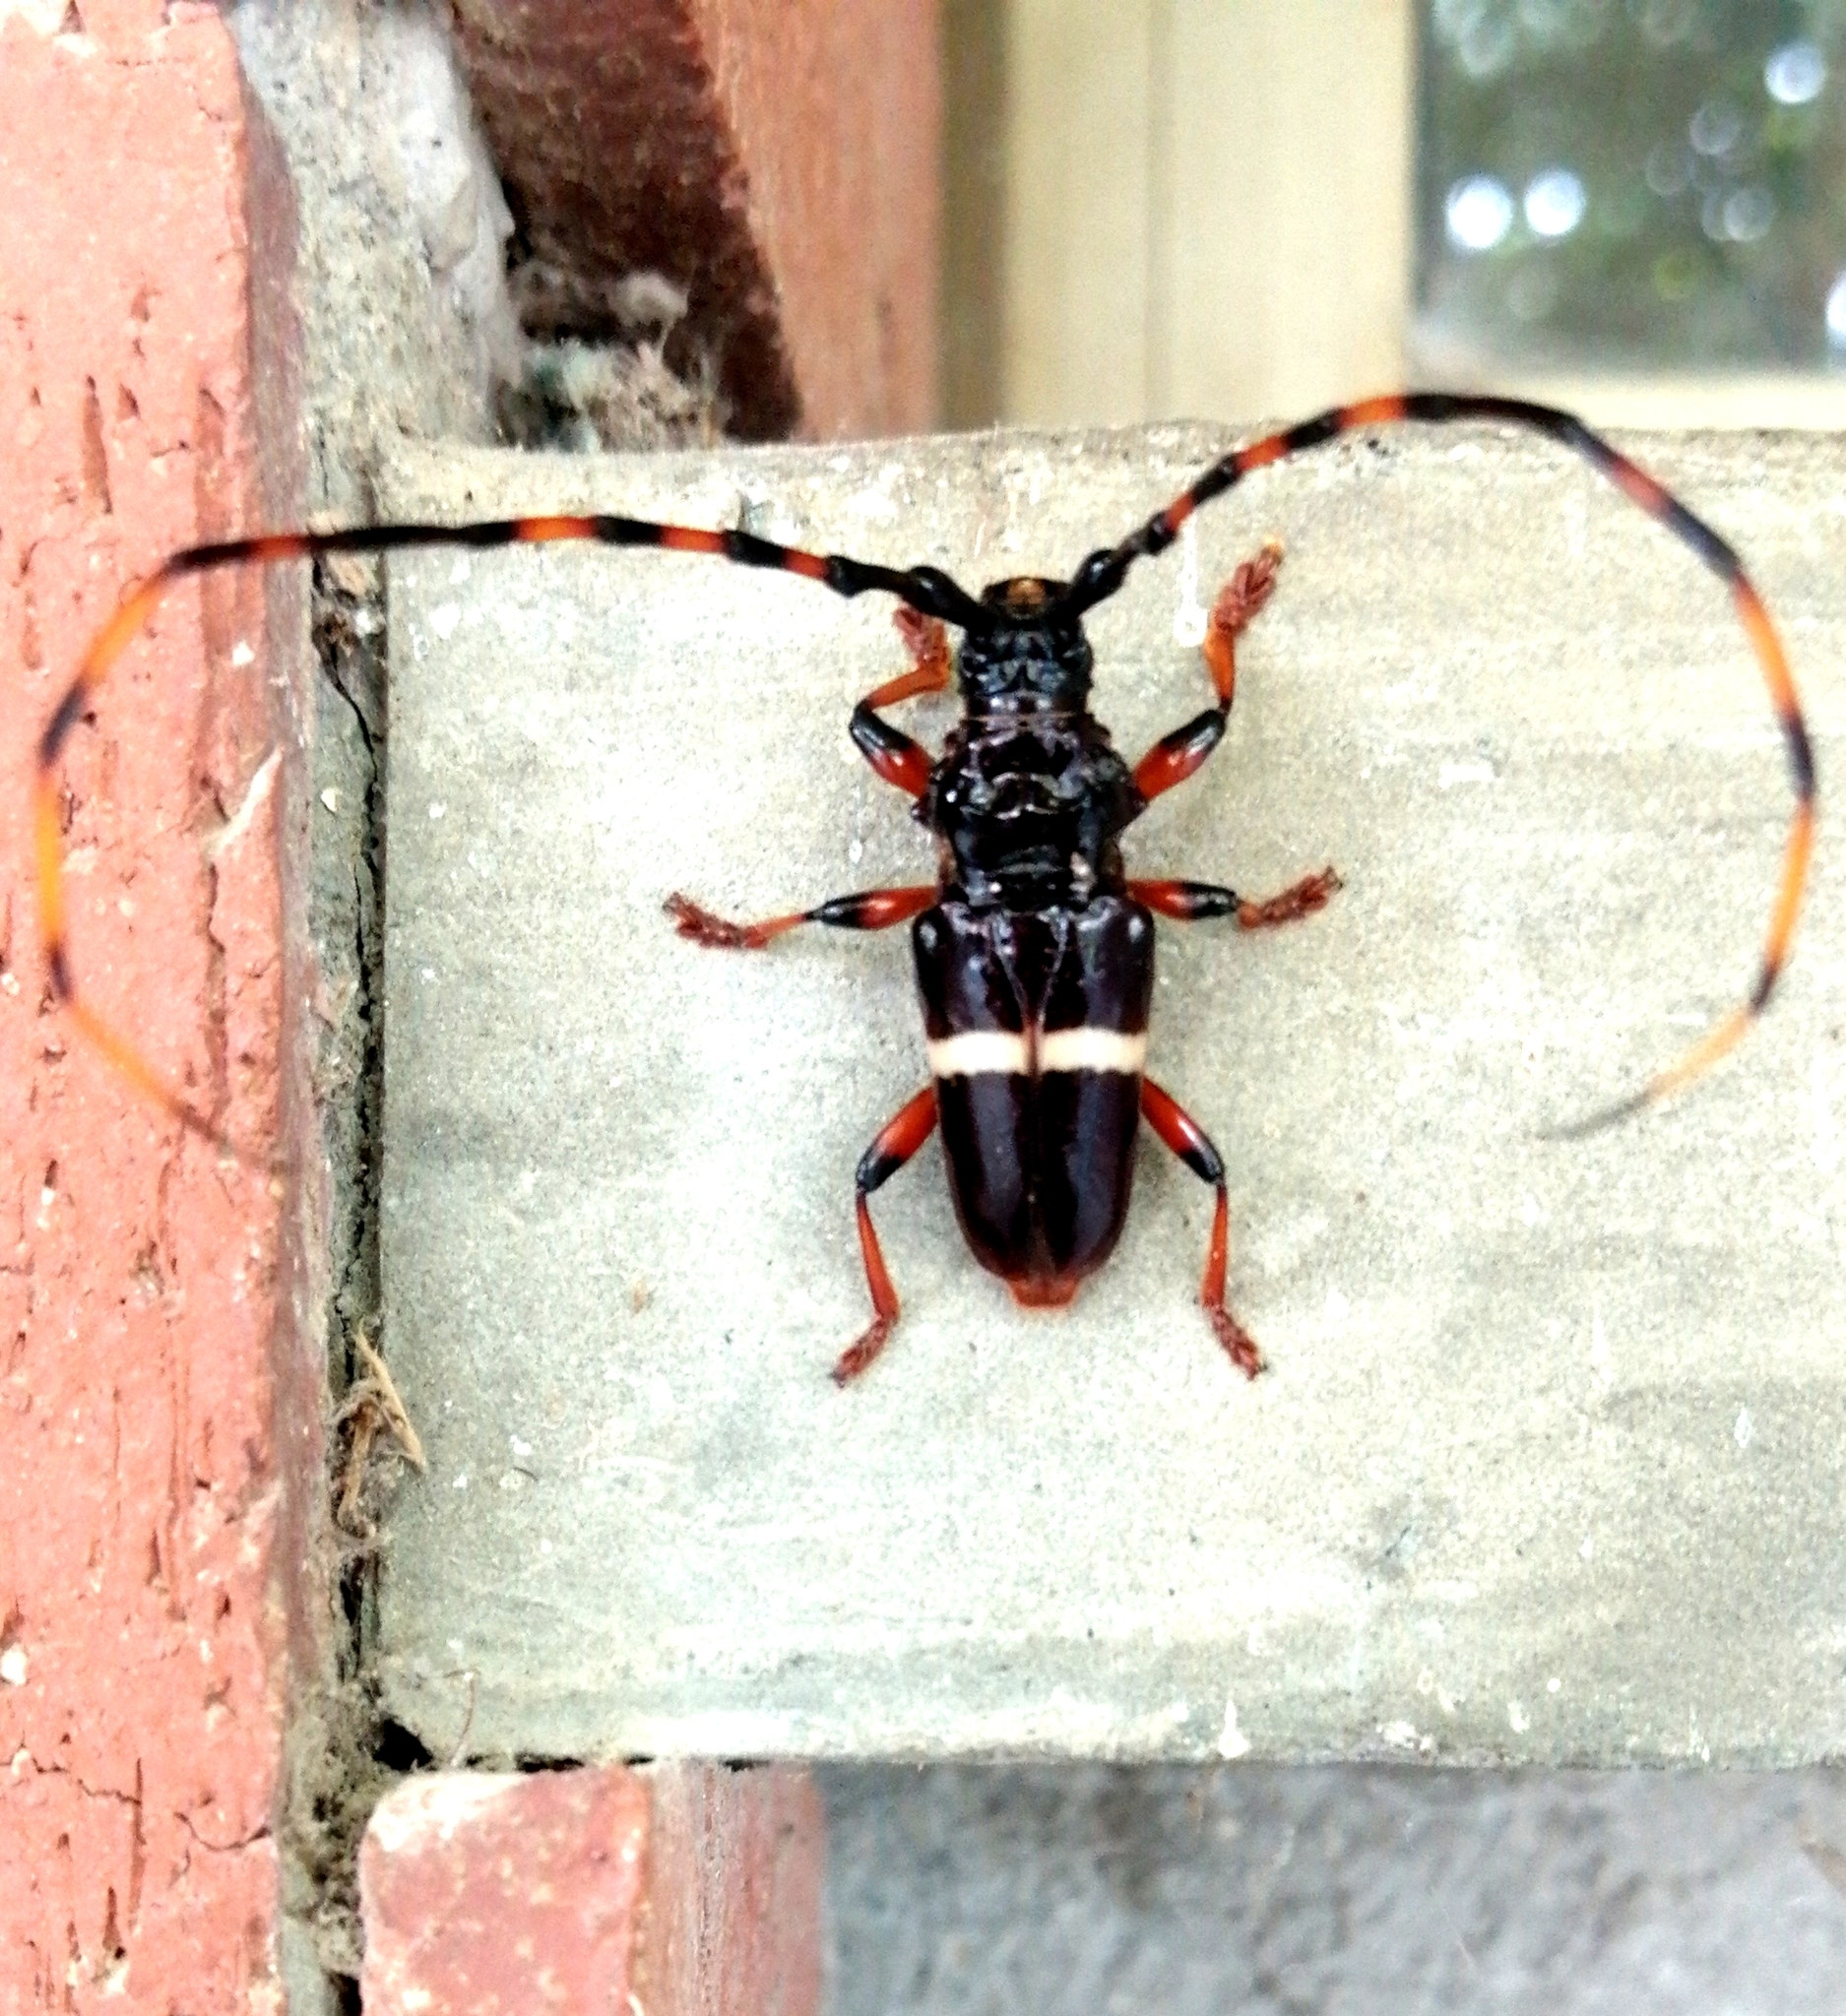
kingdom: Animalia
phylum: Arthropoda
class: Insecta
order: Coleoptera
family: Cerambycidae
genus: Trachyderes
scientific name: Trachyderes succinctus
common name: Mango longhorn
